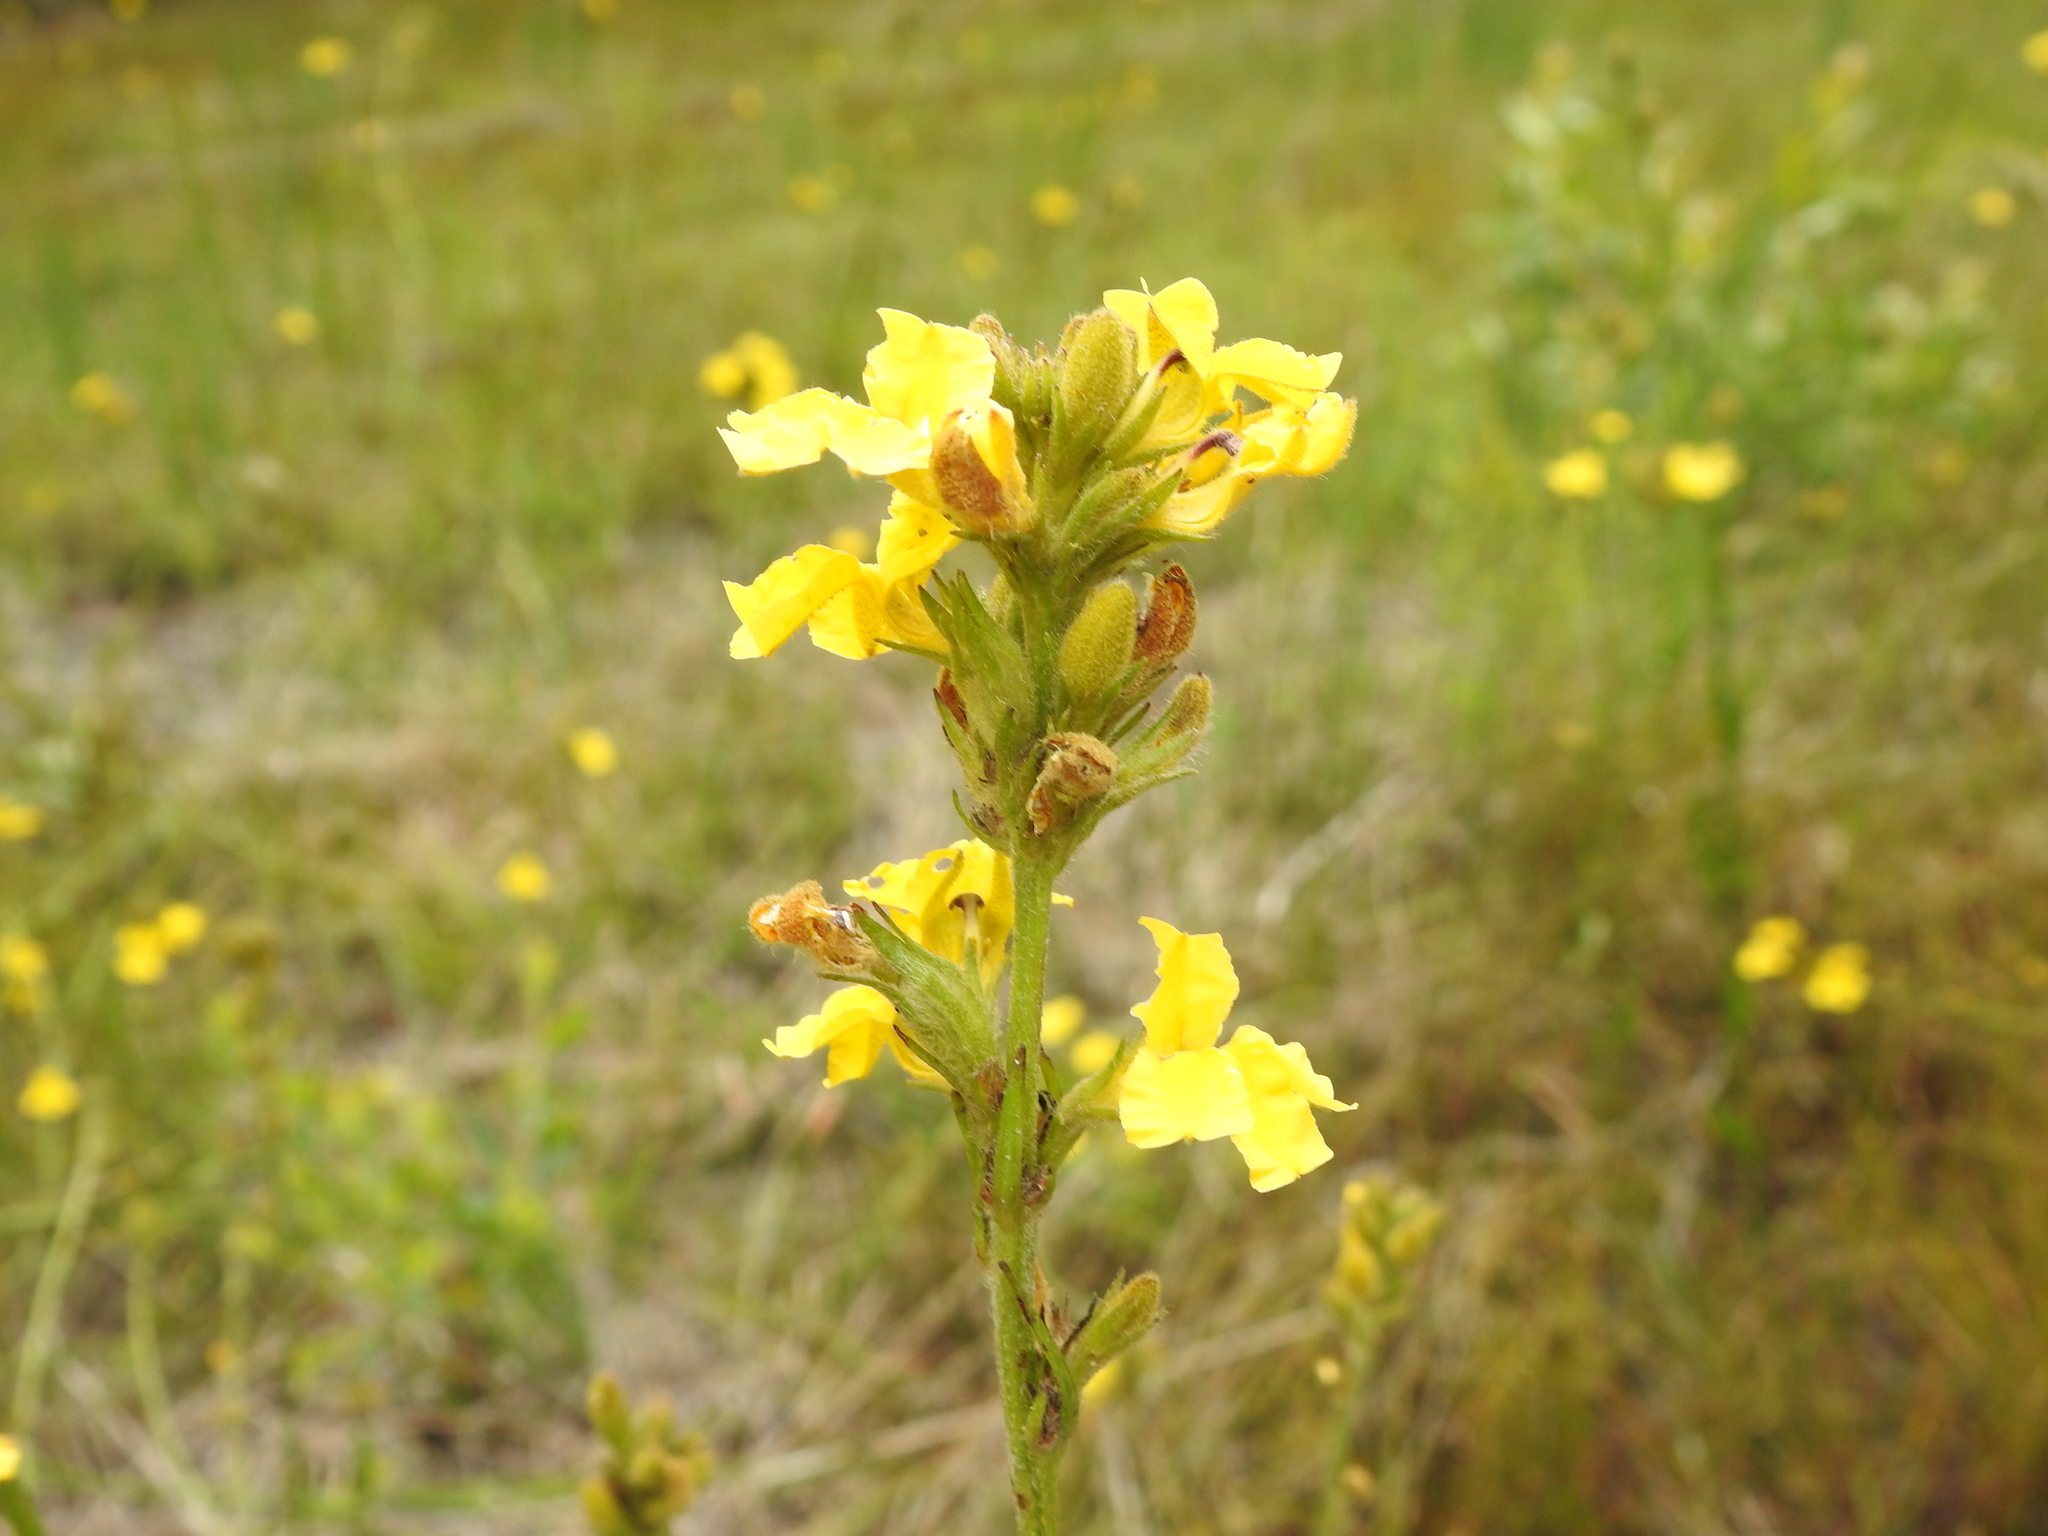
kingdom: Plantae
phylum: Tracheophyta
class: Magnoliopsida
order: Asterales
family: Goodeniaceae
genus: Goodenia
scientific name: Goodenia stelligera
